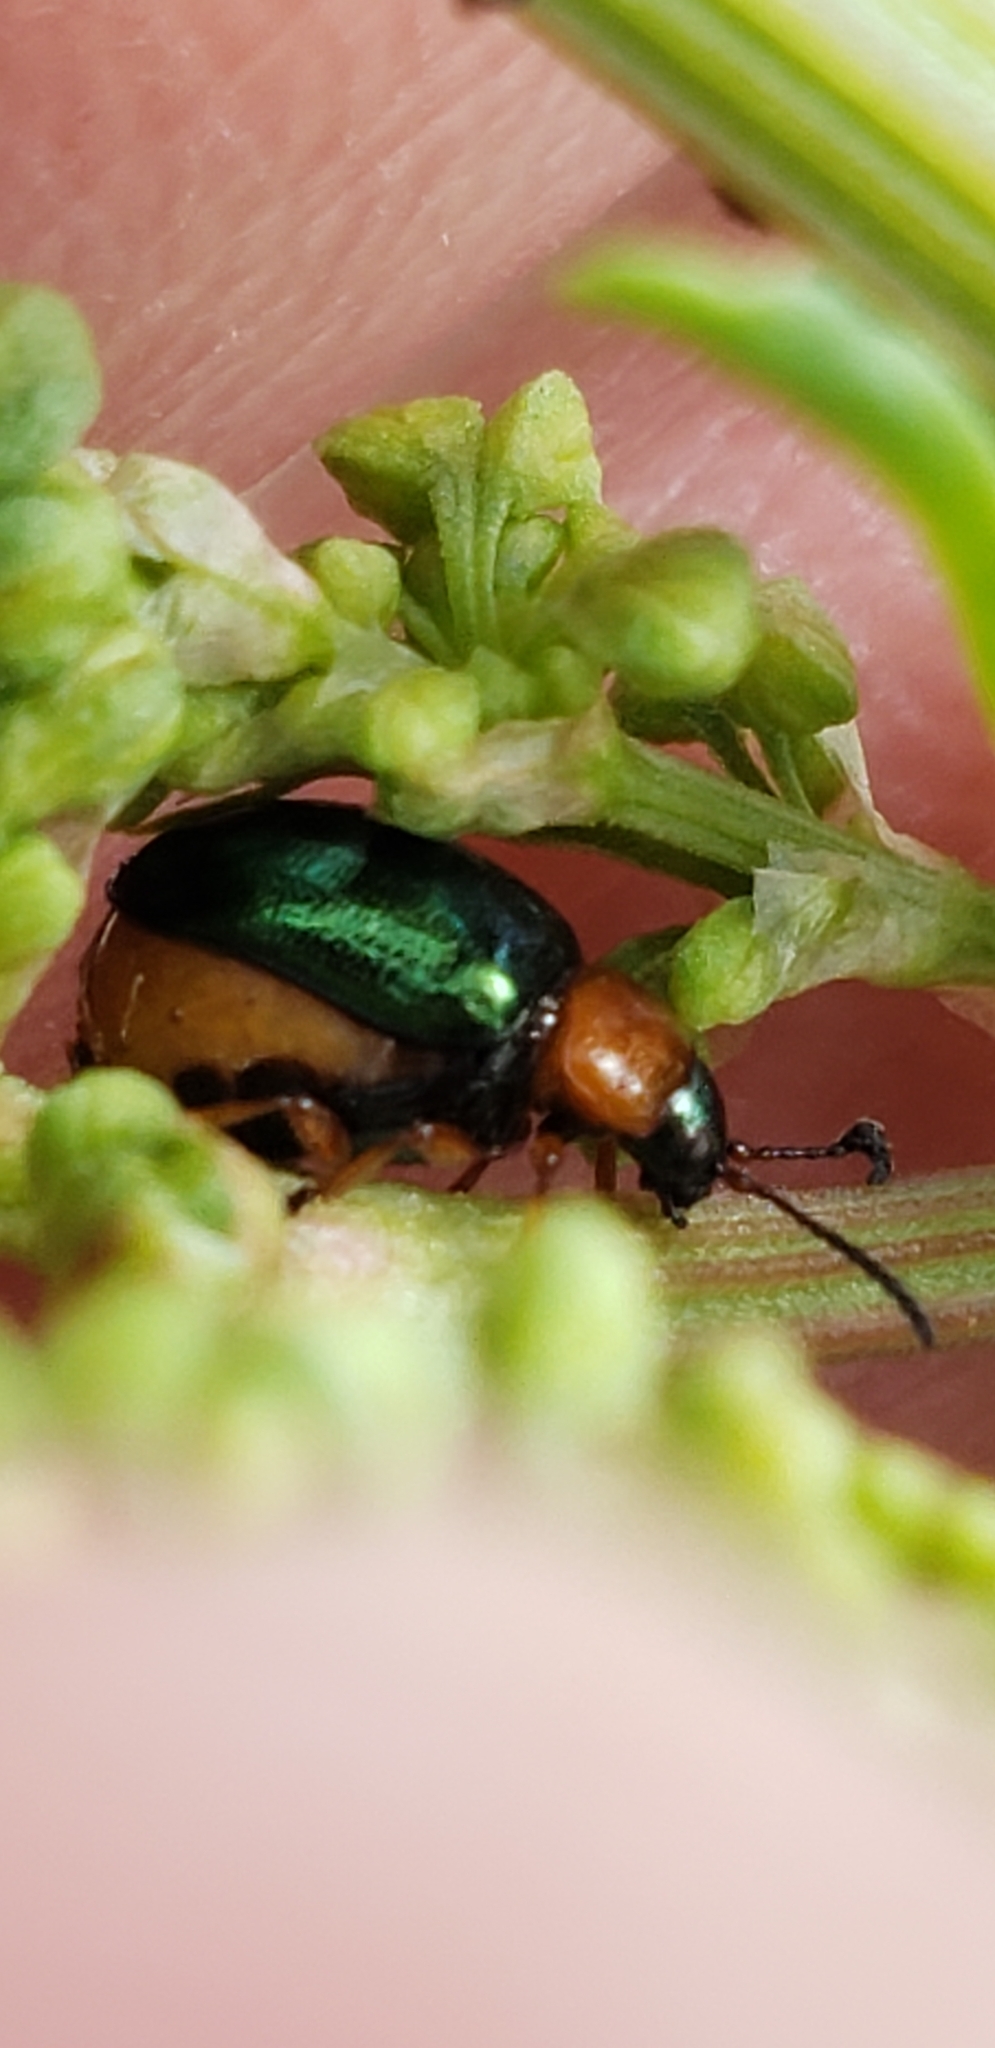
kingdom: Animalia
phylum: Arthropoda
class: Insecta
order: Coleoptera
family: Chrysomelidae
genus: Gastrophysa
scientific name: Gastrophysa polygoni
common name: Knotweed leaf beetle
